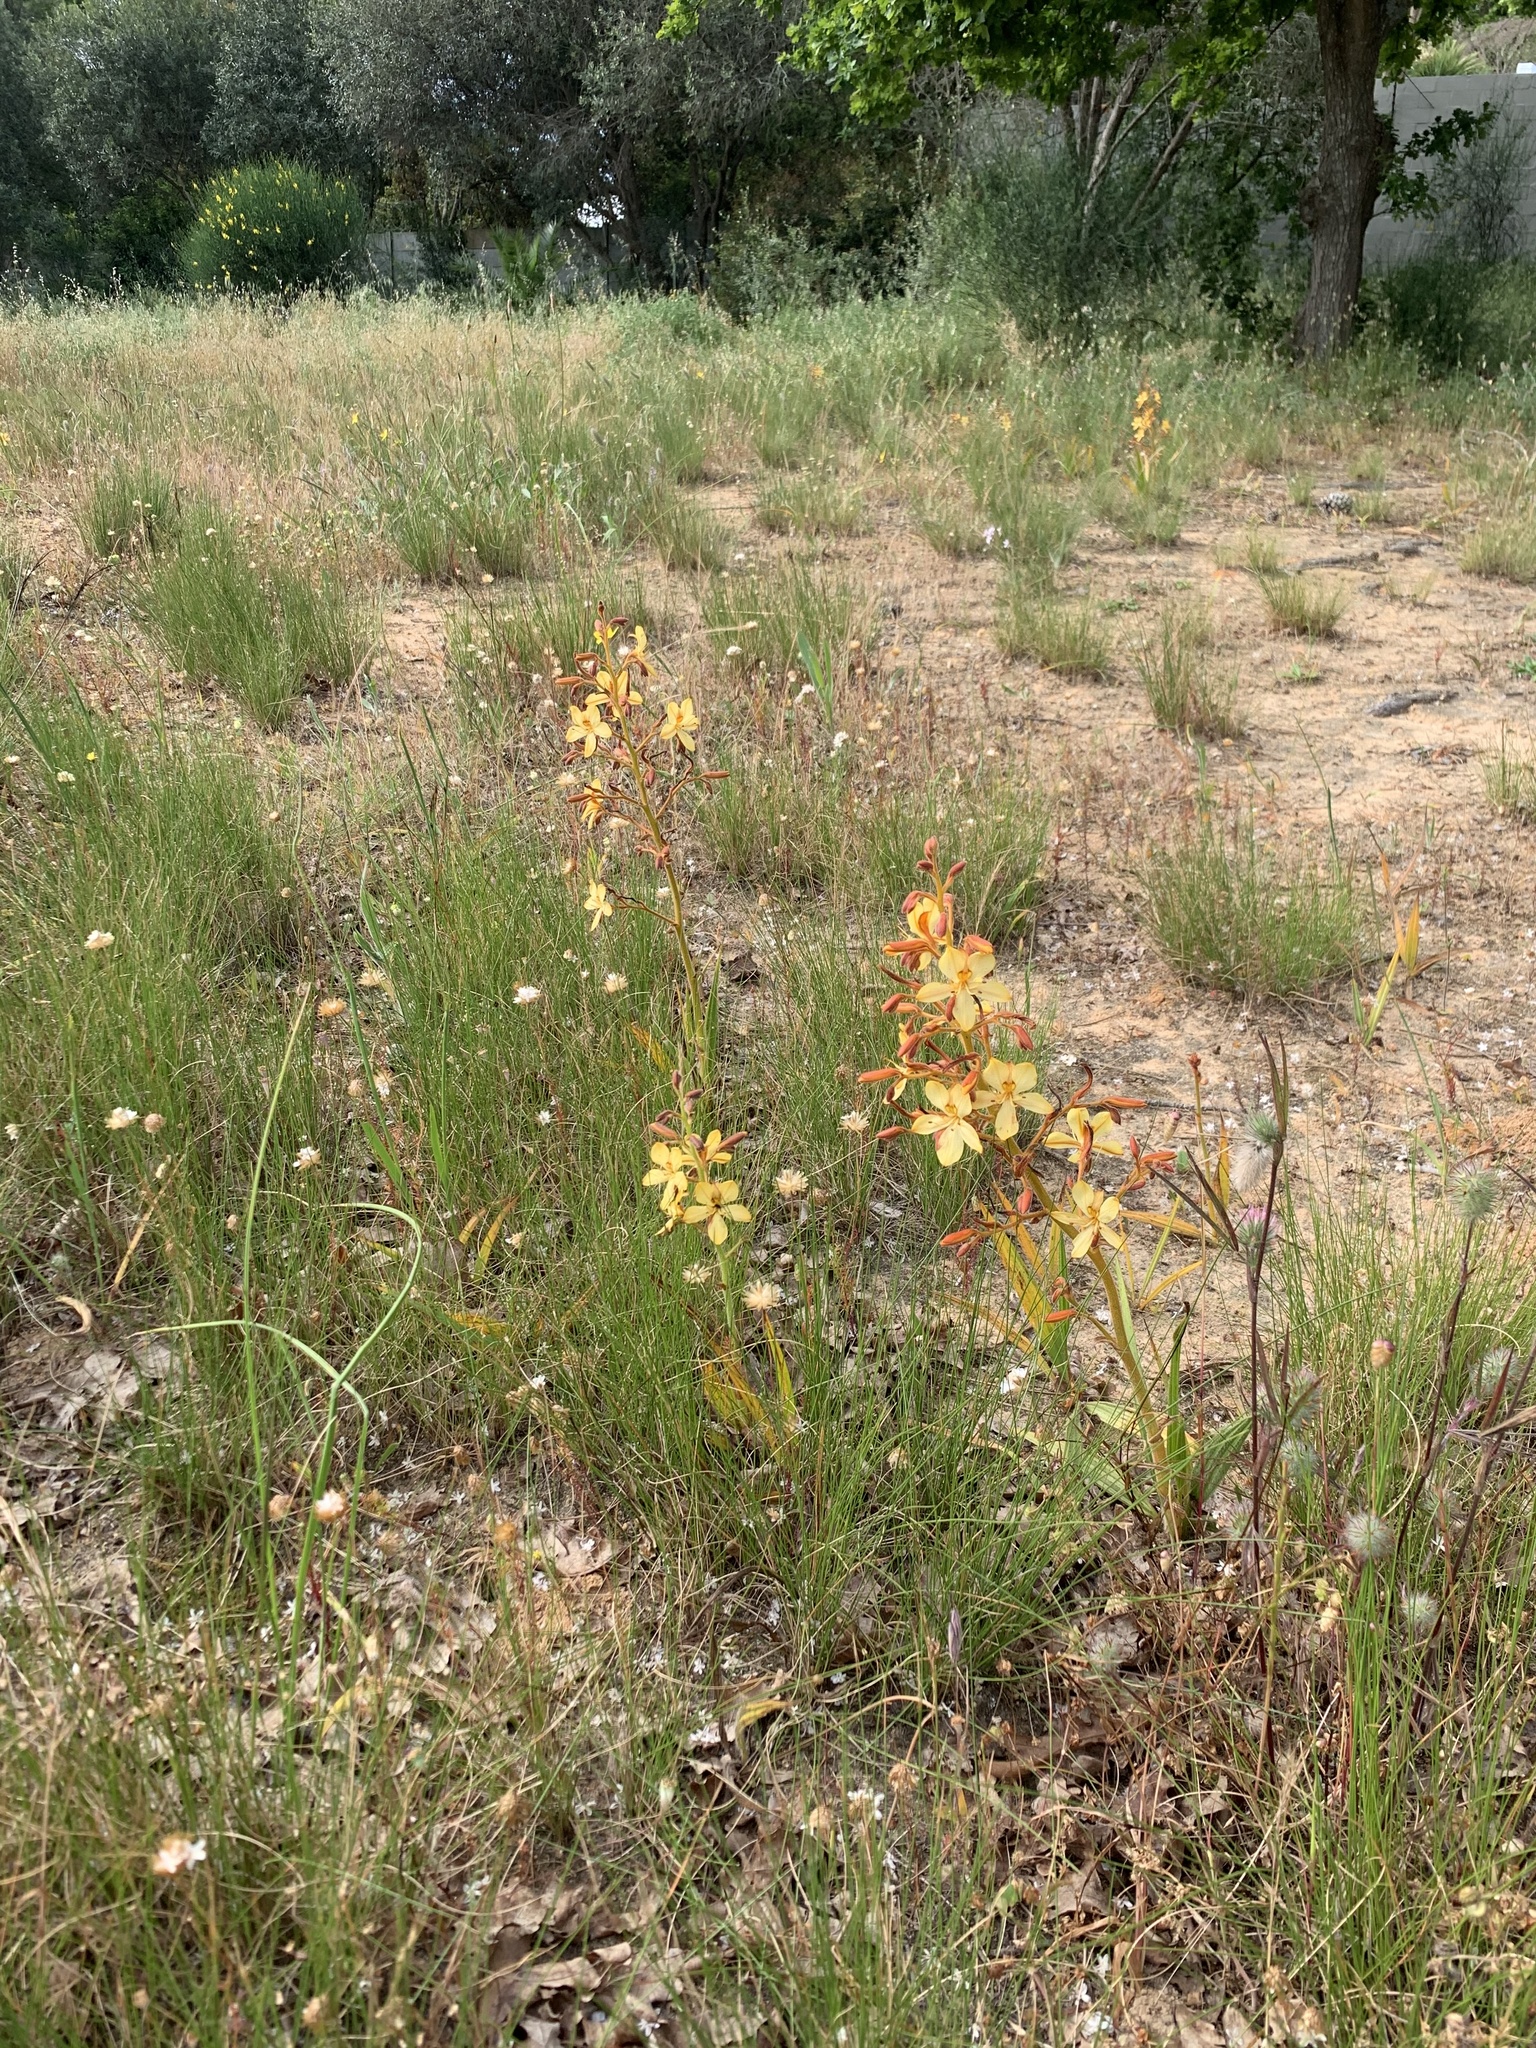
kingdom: Plantae
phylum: Tracheophyta
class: Liliopsida
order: Commelinales
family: Haemodoraceae
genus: Wachendorfia
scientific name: Wachendorfia paniculata
